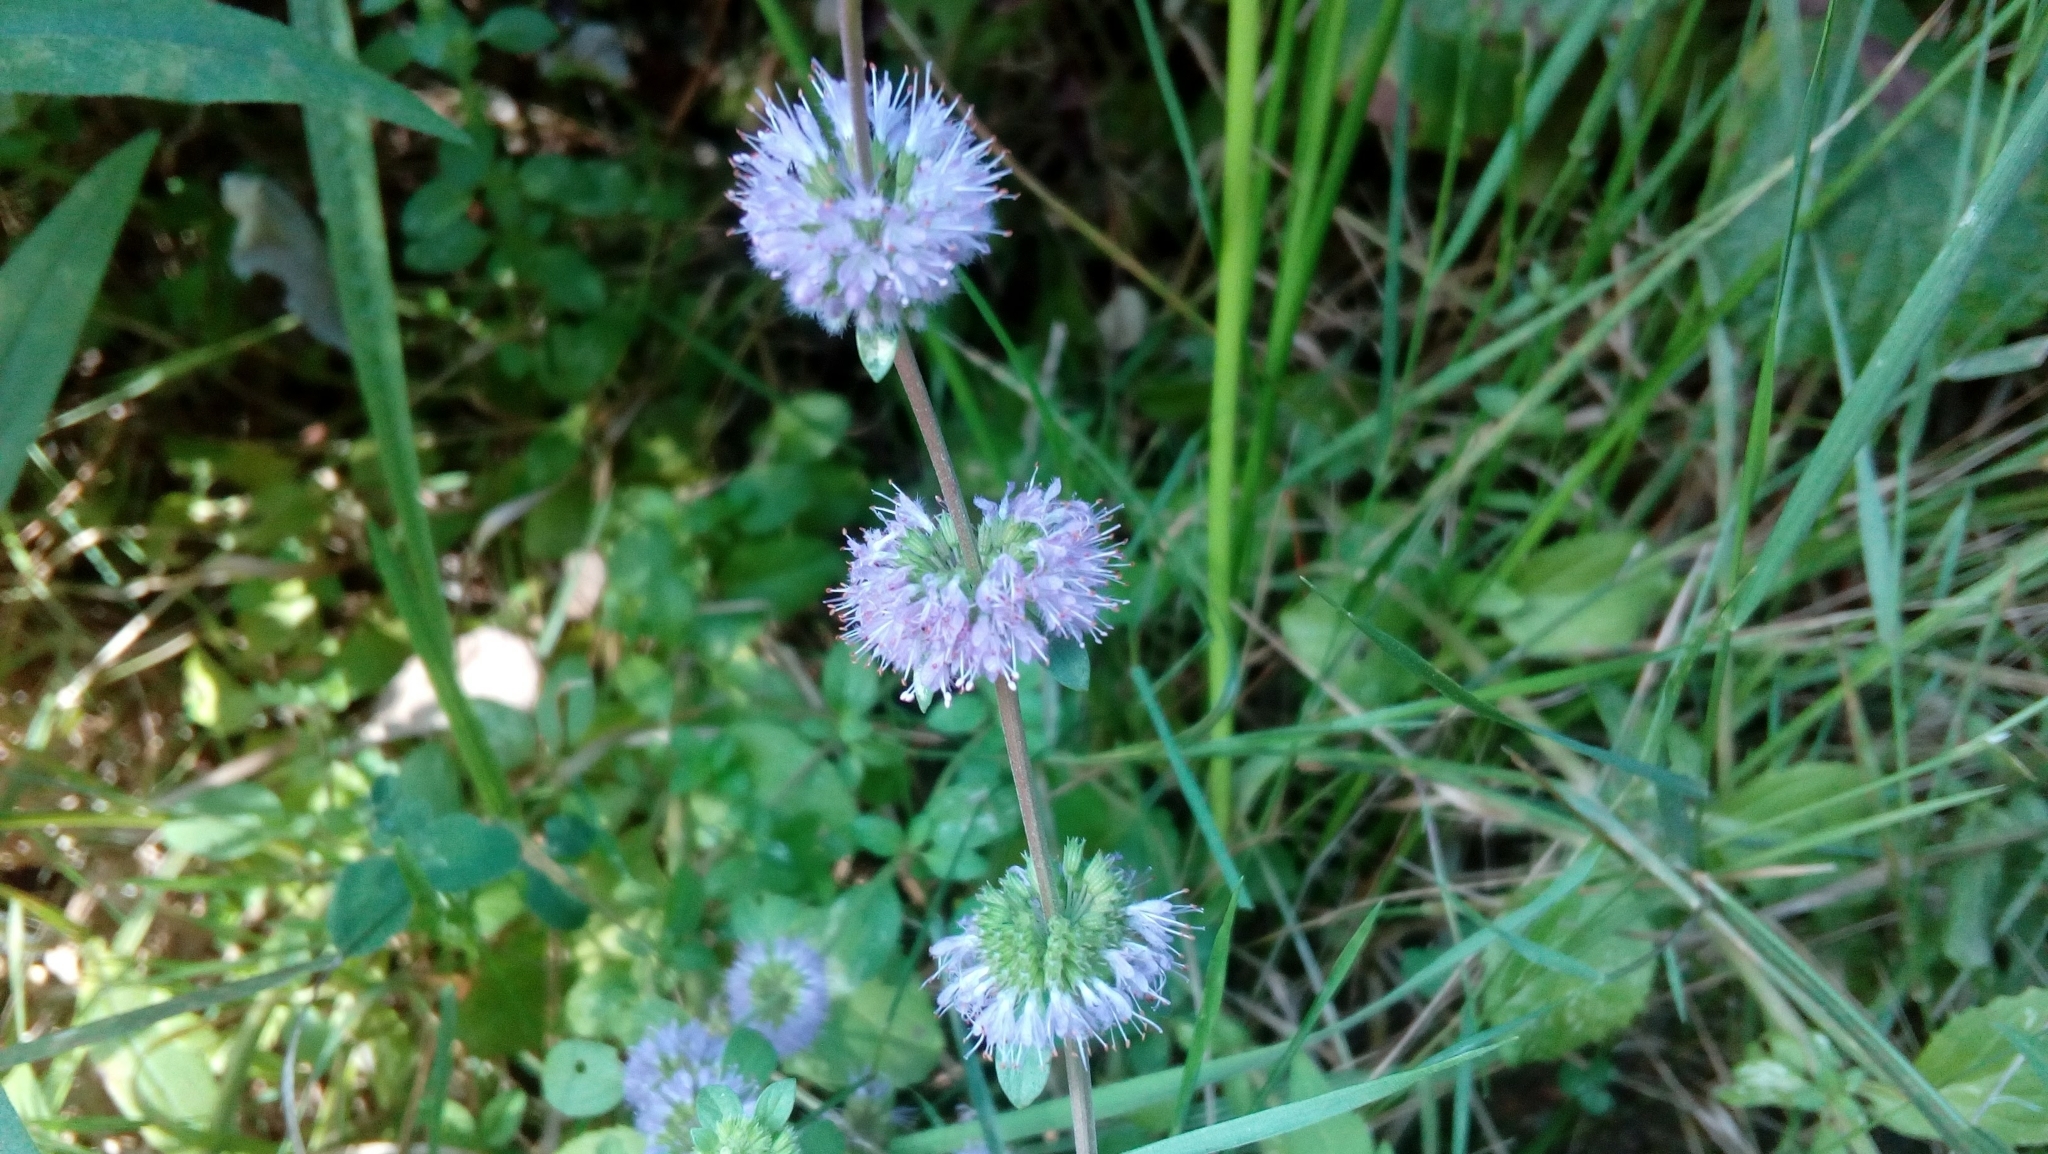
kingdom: Plantae
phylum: Tracheophyta
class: Magnoliopsida
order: Lamiales
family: Lamiaceae
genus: Mentha
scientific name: Mentha pulegium
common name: Pennyroyal
